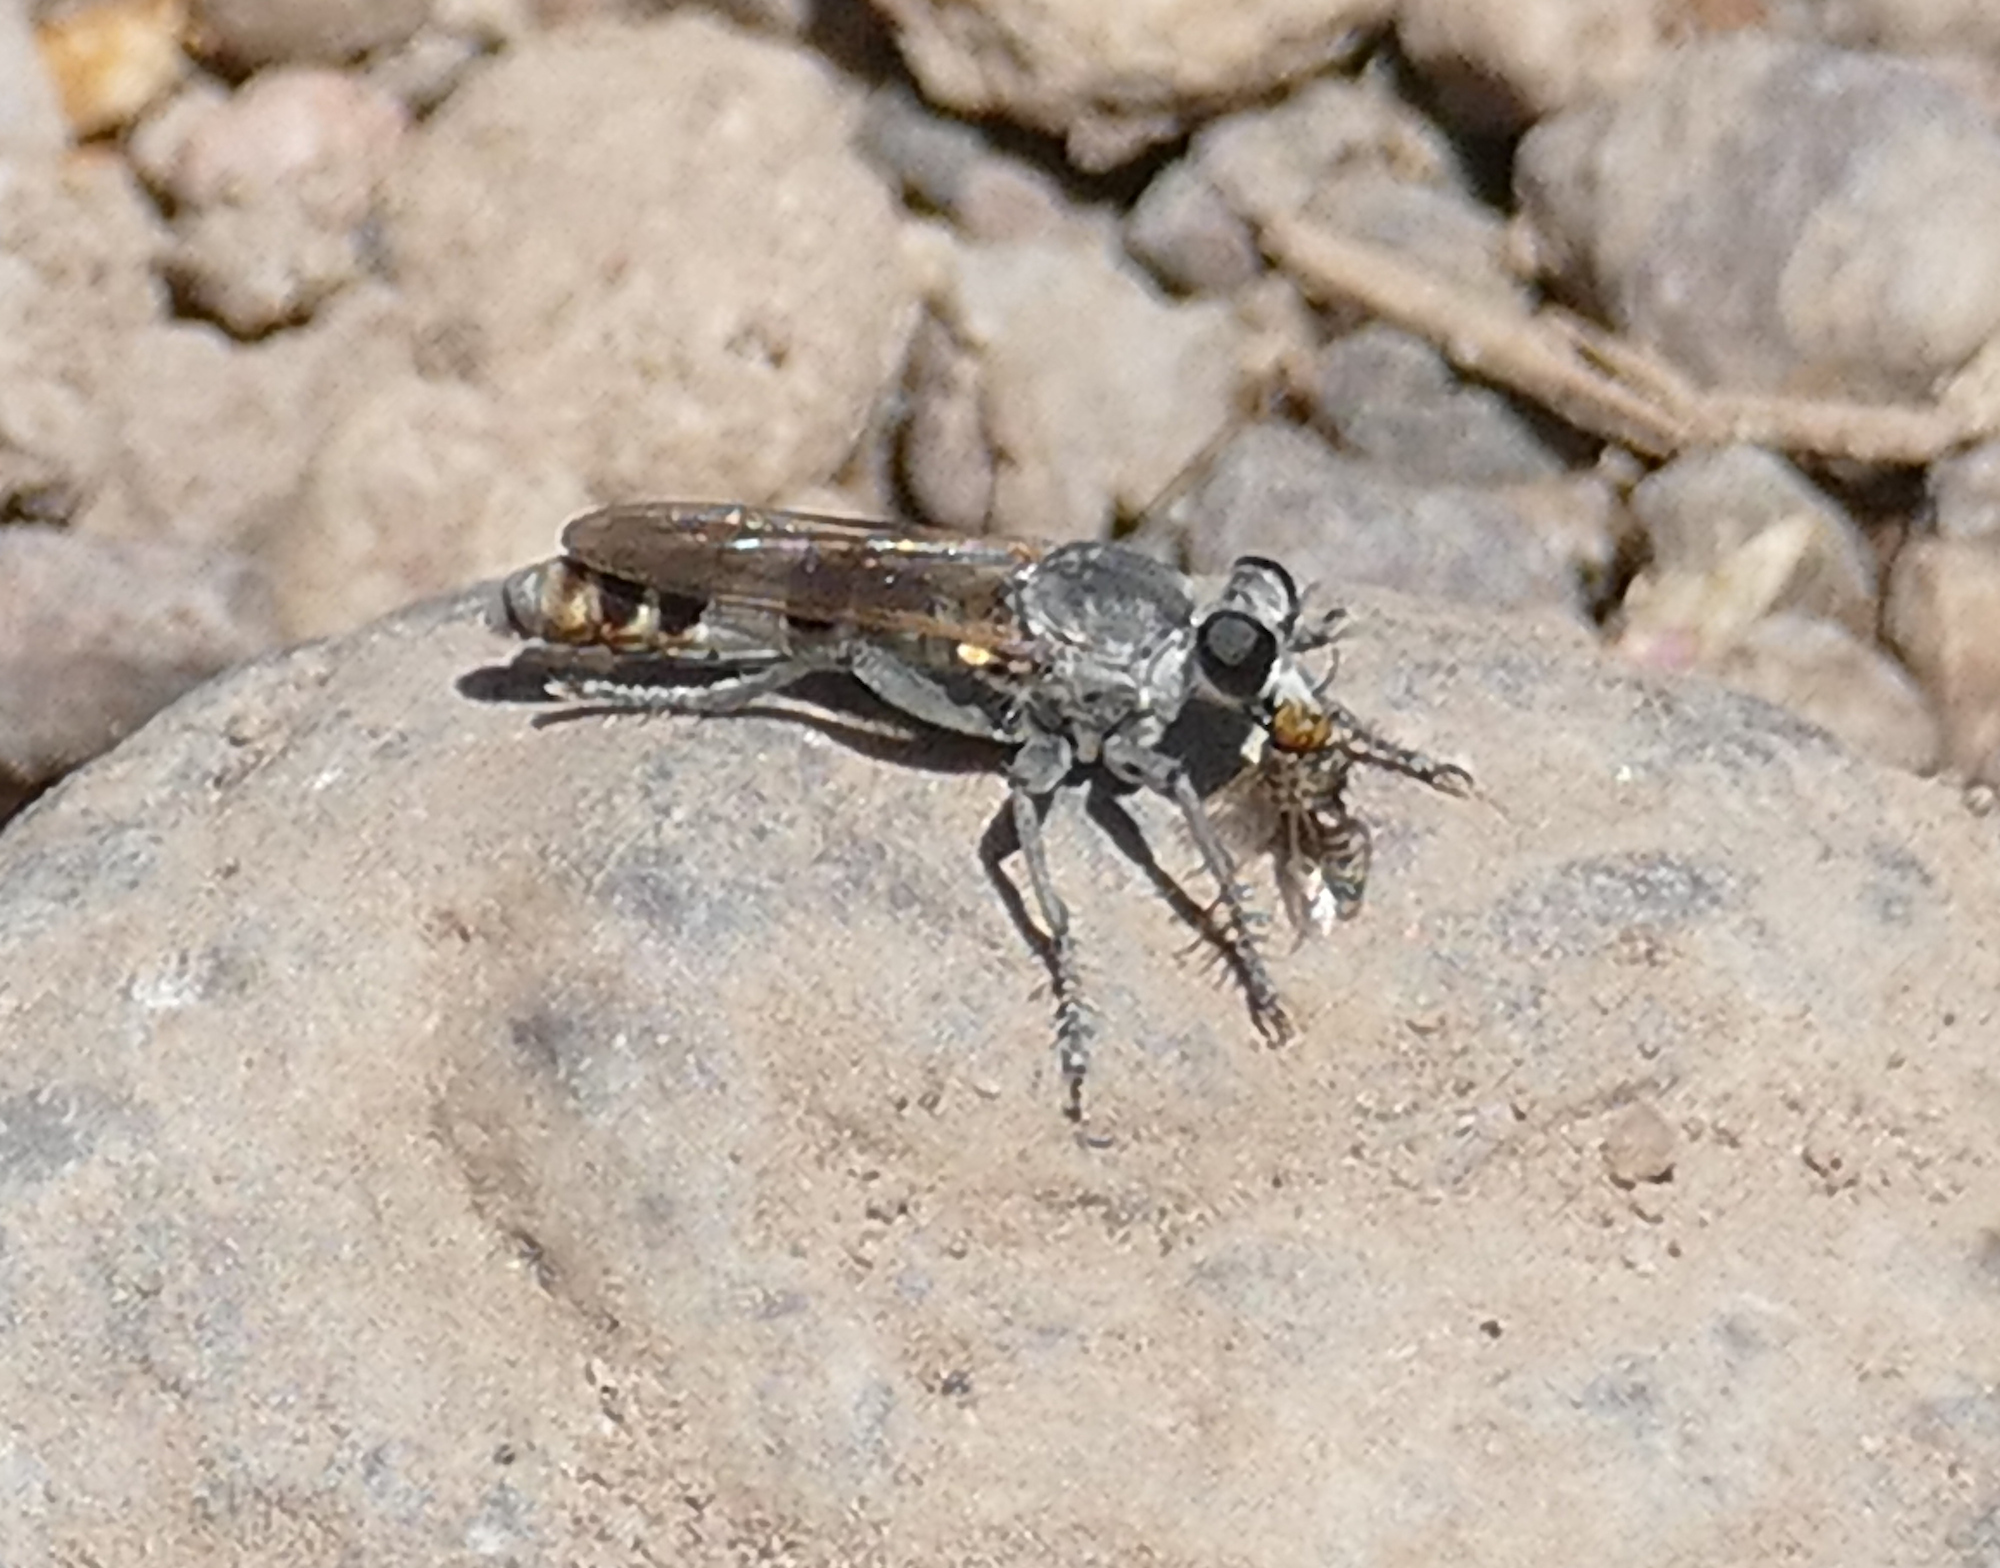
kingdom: Animalia
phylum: Arthropoda
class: Insecta
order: Diptera
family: Asilidae
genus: Stichopogon
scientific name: Stichopogon trifasciatus
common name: Three-banded robber fly
